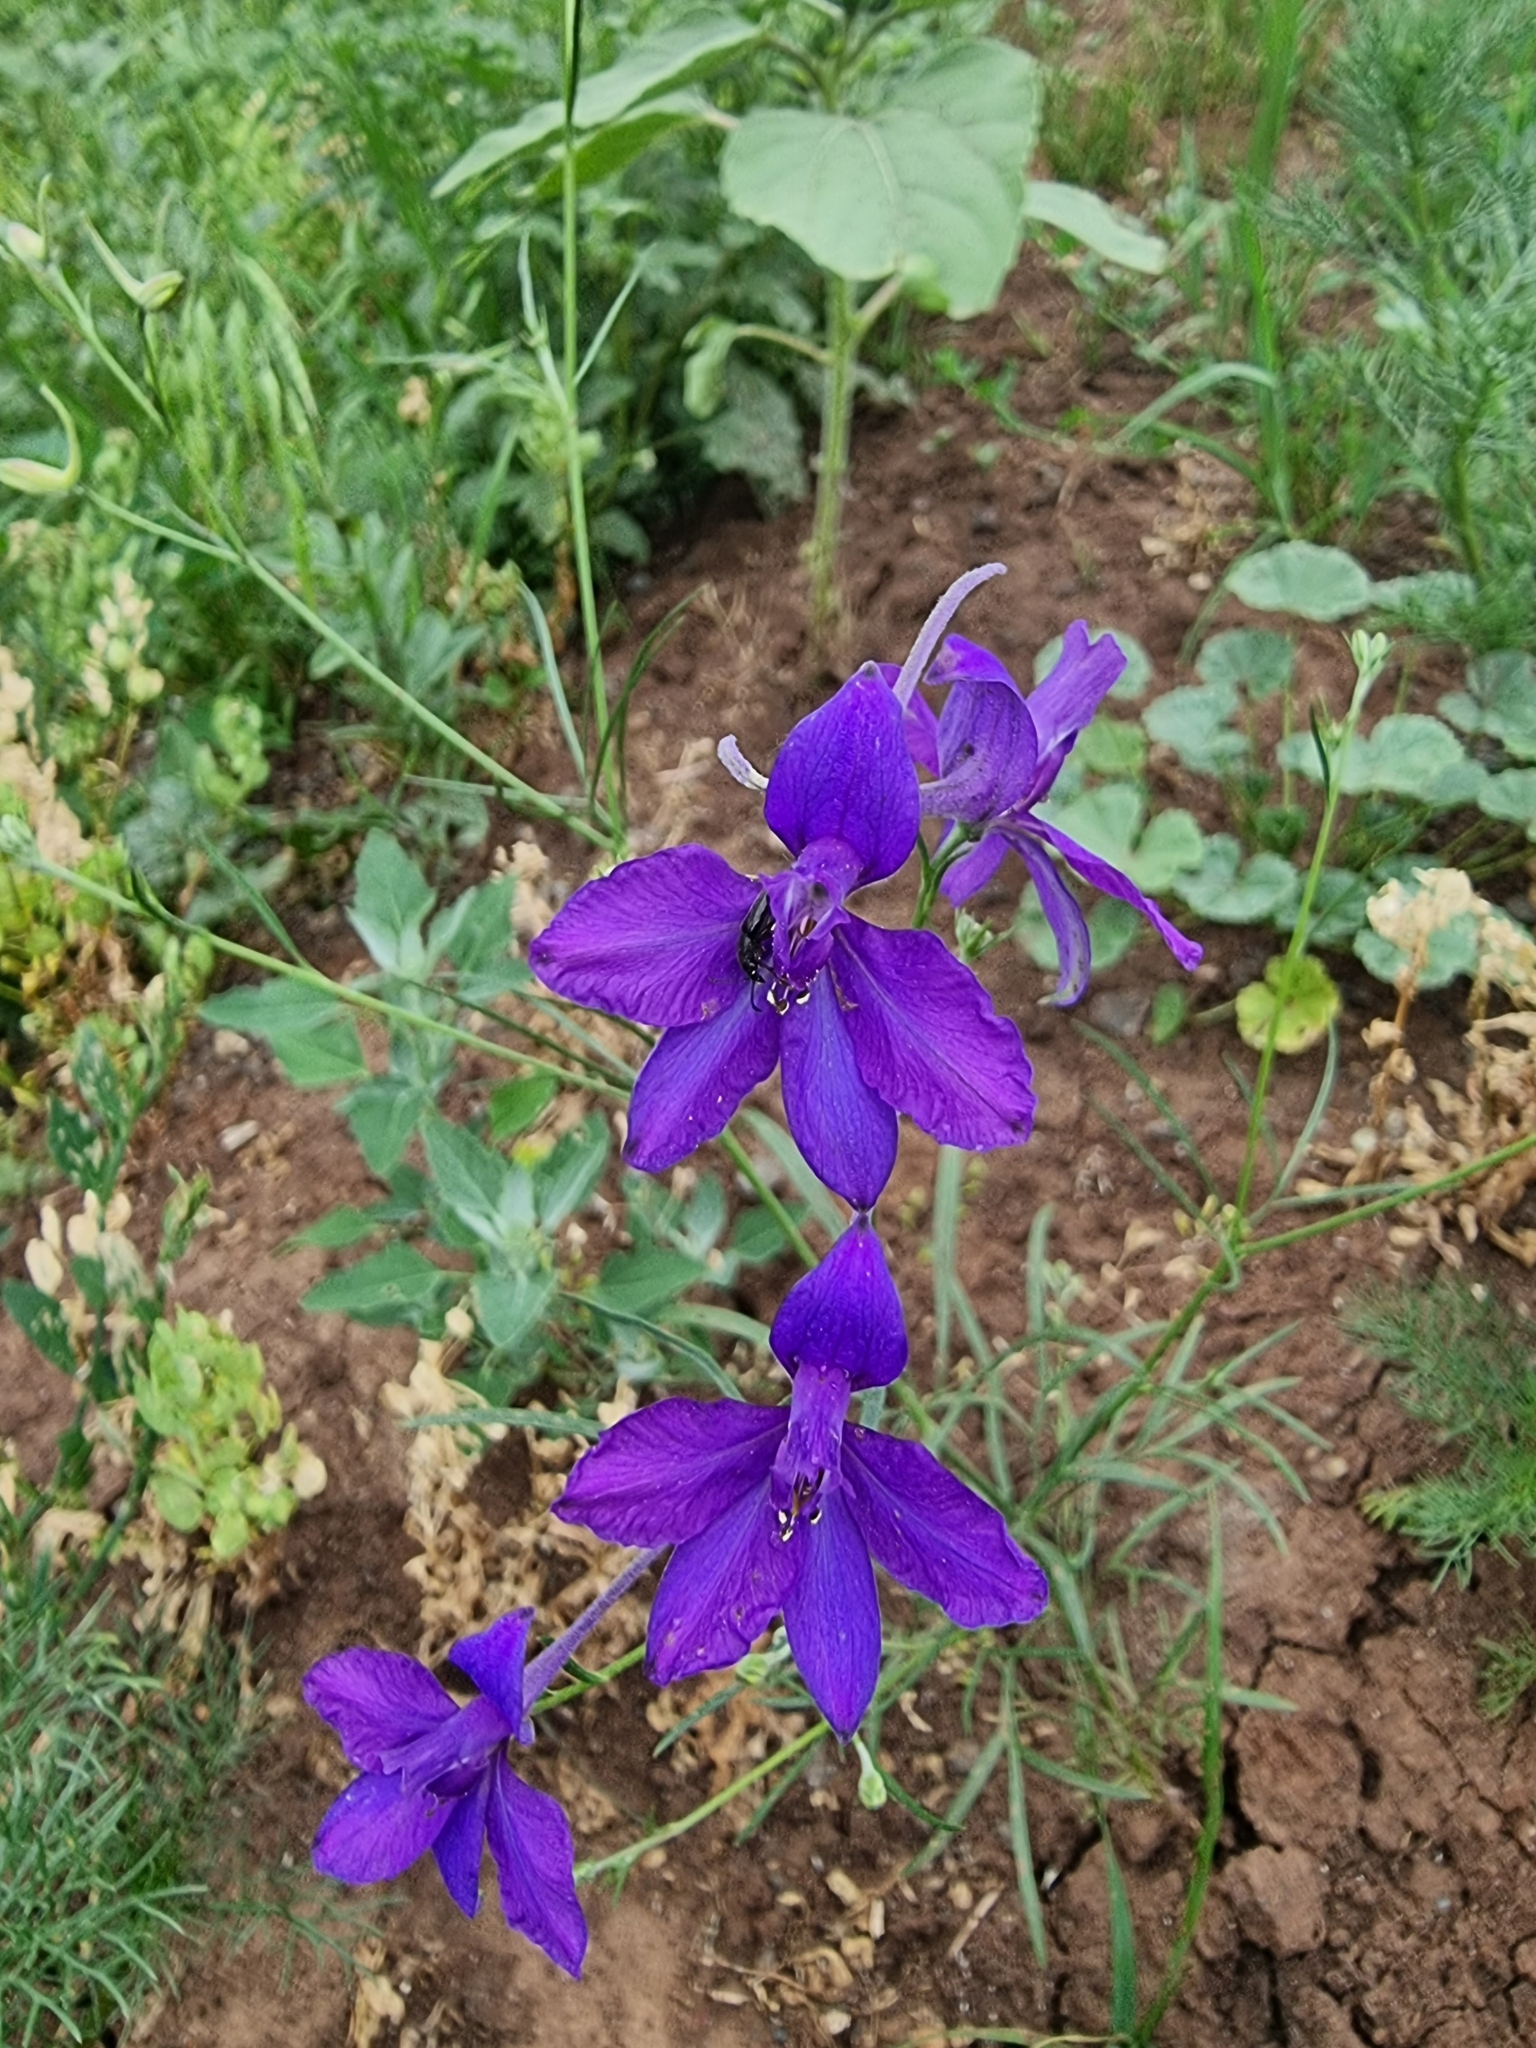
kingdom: Plantae
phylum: Tracheophyta
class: Magnoliopsida
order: Ranunculales
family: Ranunculaceae
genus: Delphinium
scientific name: Delphinium consolida
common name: Branching larkspur
